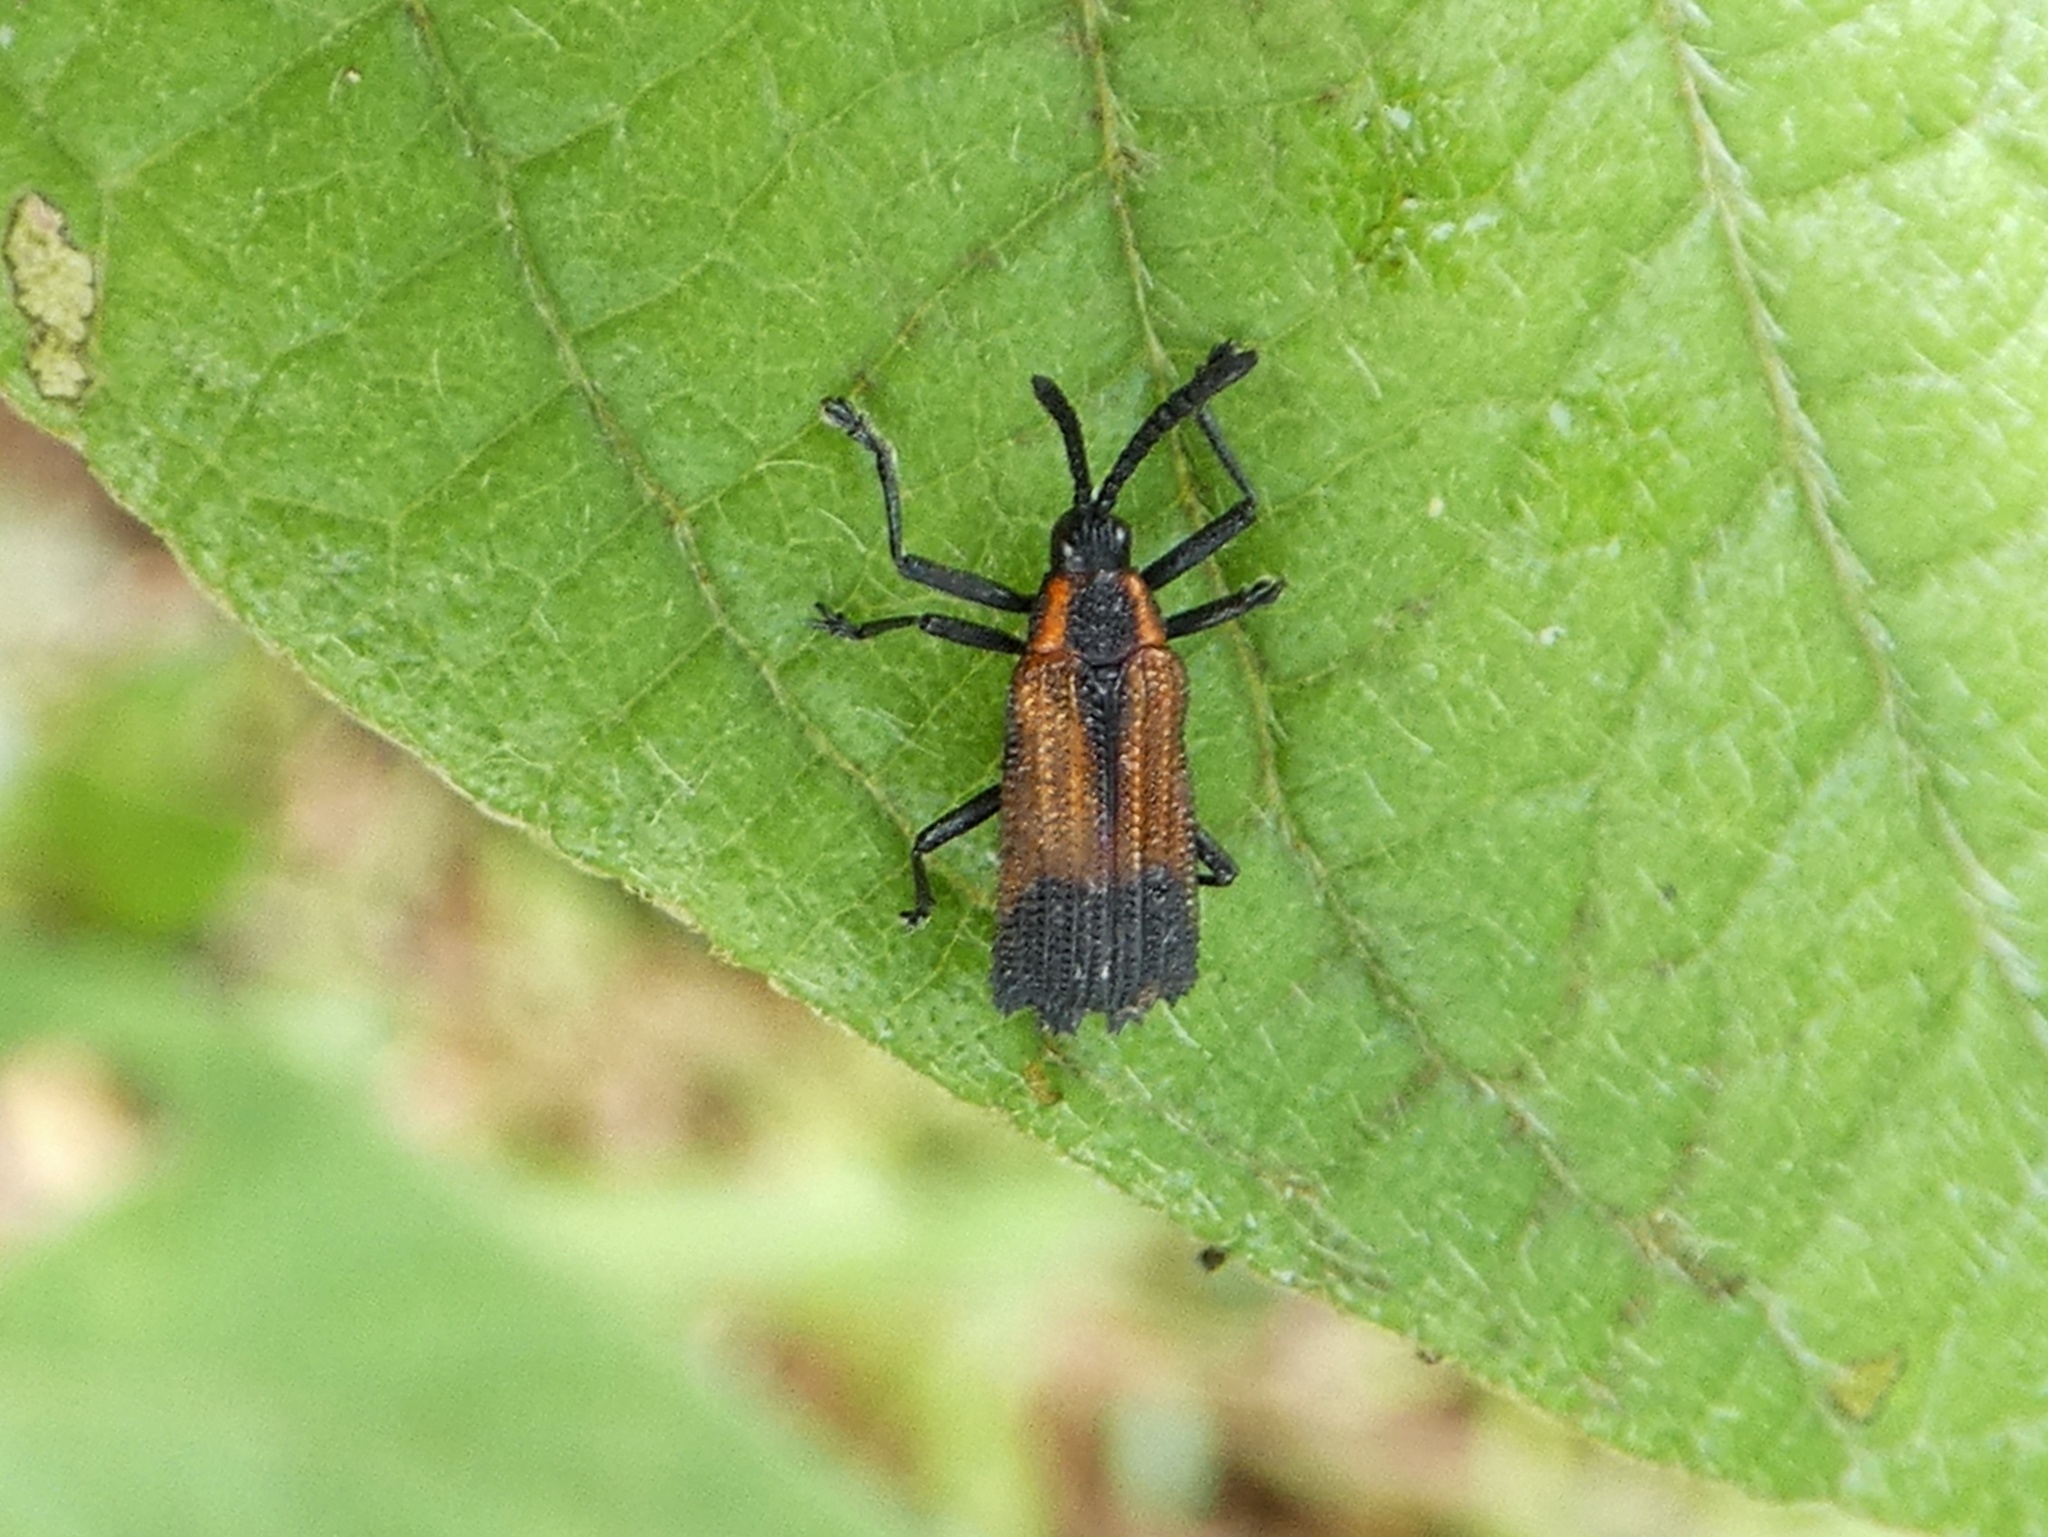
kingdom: Animalia
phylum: Arthropoda
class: Insecta
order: Coleoptera
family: Chrysomelidae
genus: Pentispa
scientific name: Pentispa clarkella
